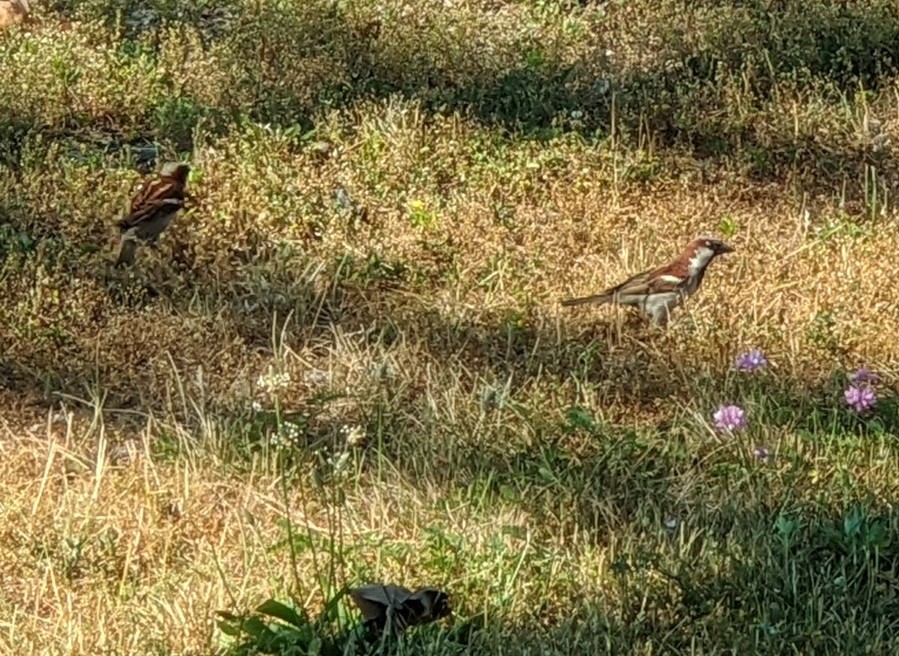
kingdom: Animalia
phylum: Chordata
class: Aves
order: Passeriformes
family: Passeridae
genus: Passer
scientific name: Passer domesticus
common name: House sparrow
